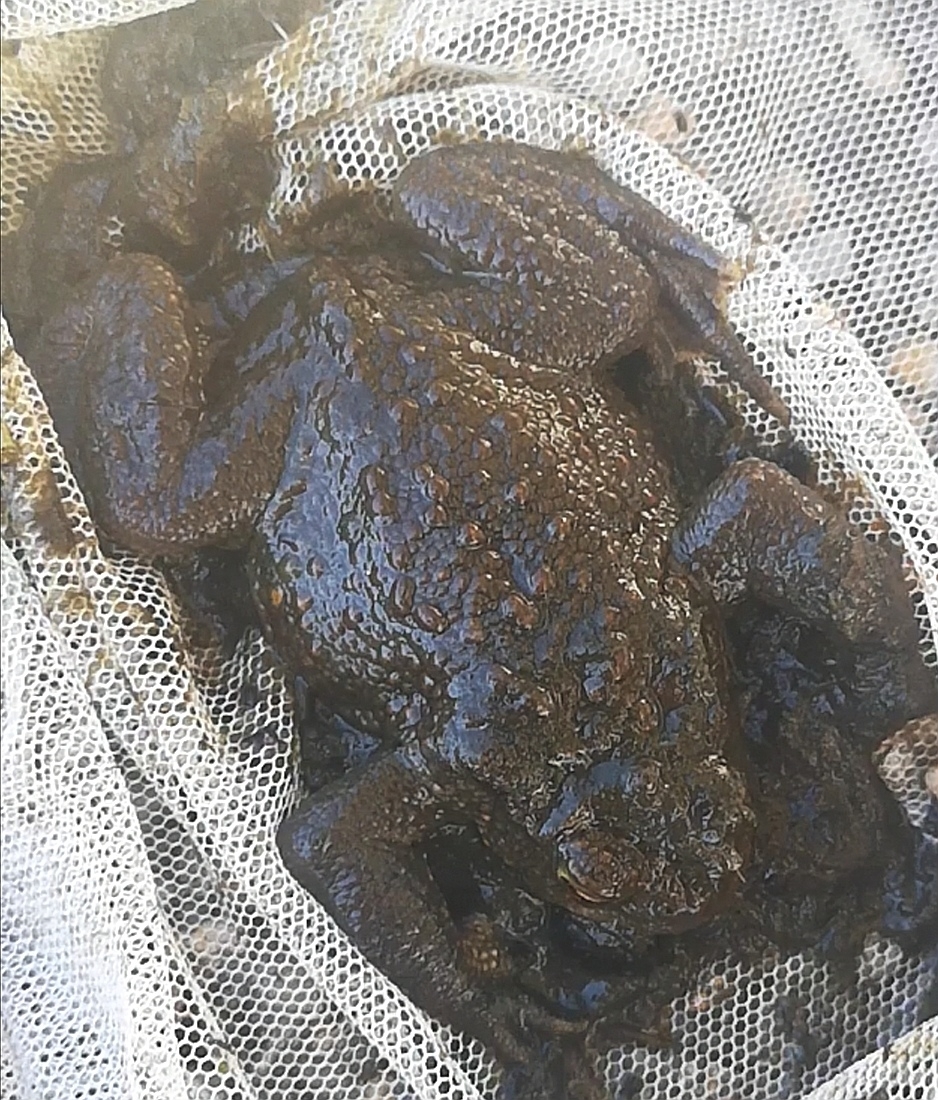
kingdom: Animalia
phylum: Chordata
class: Amphibia
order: Anura
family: Bufonidae
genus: Bufo
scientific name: Bufo bufo
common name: Common toad
